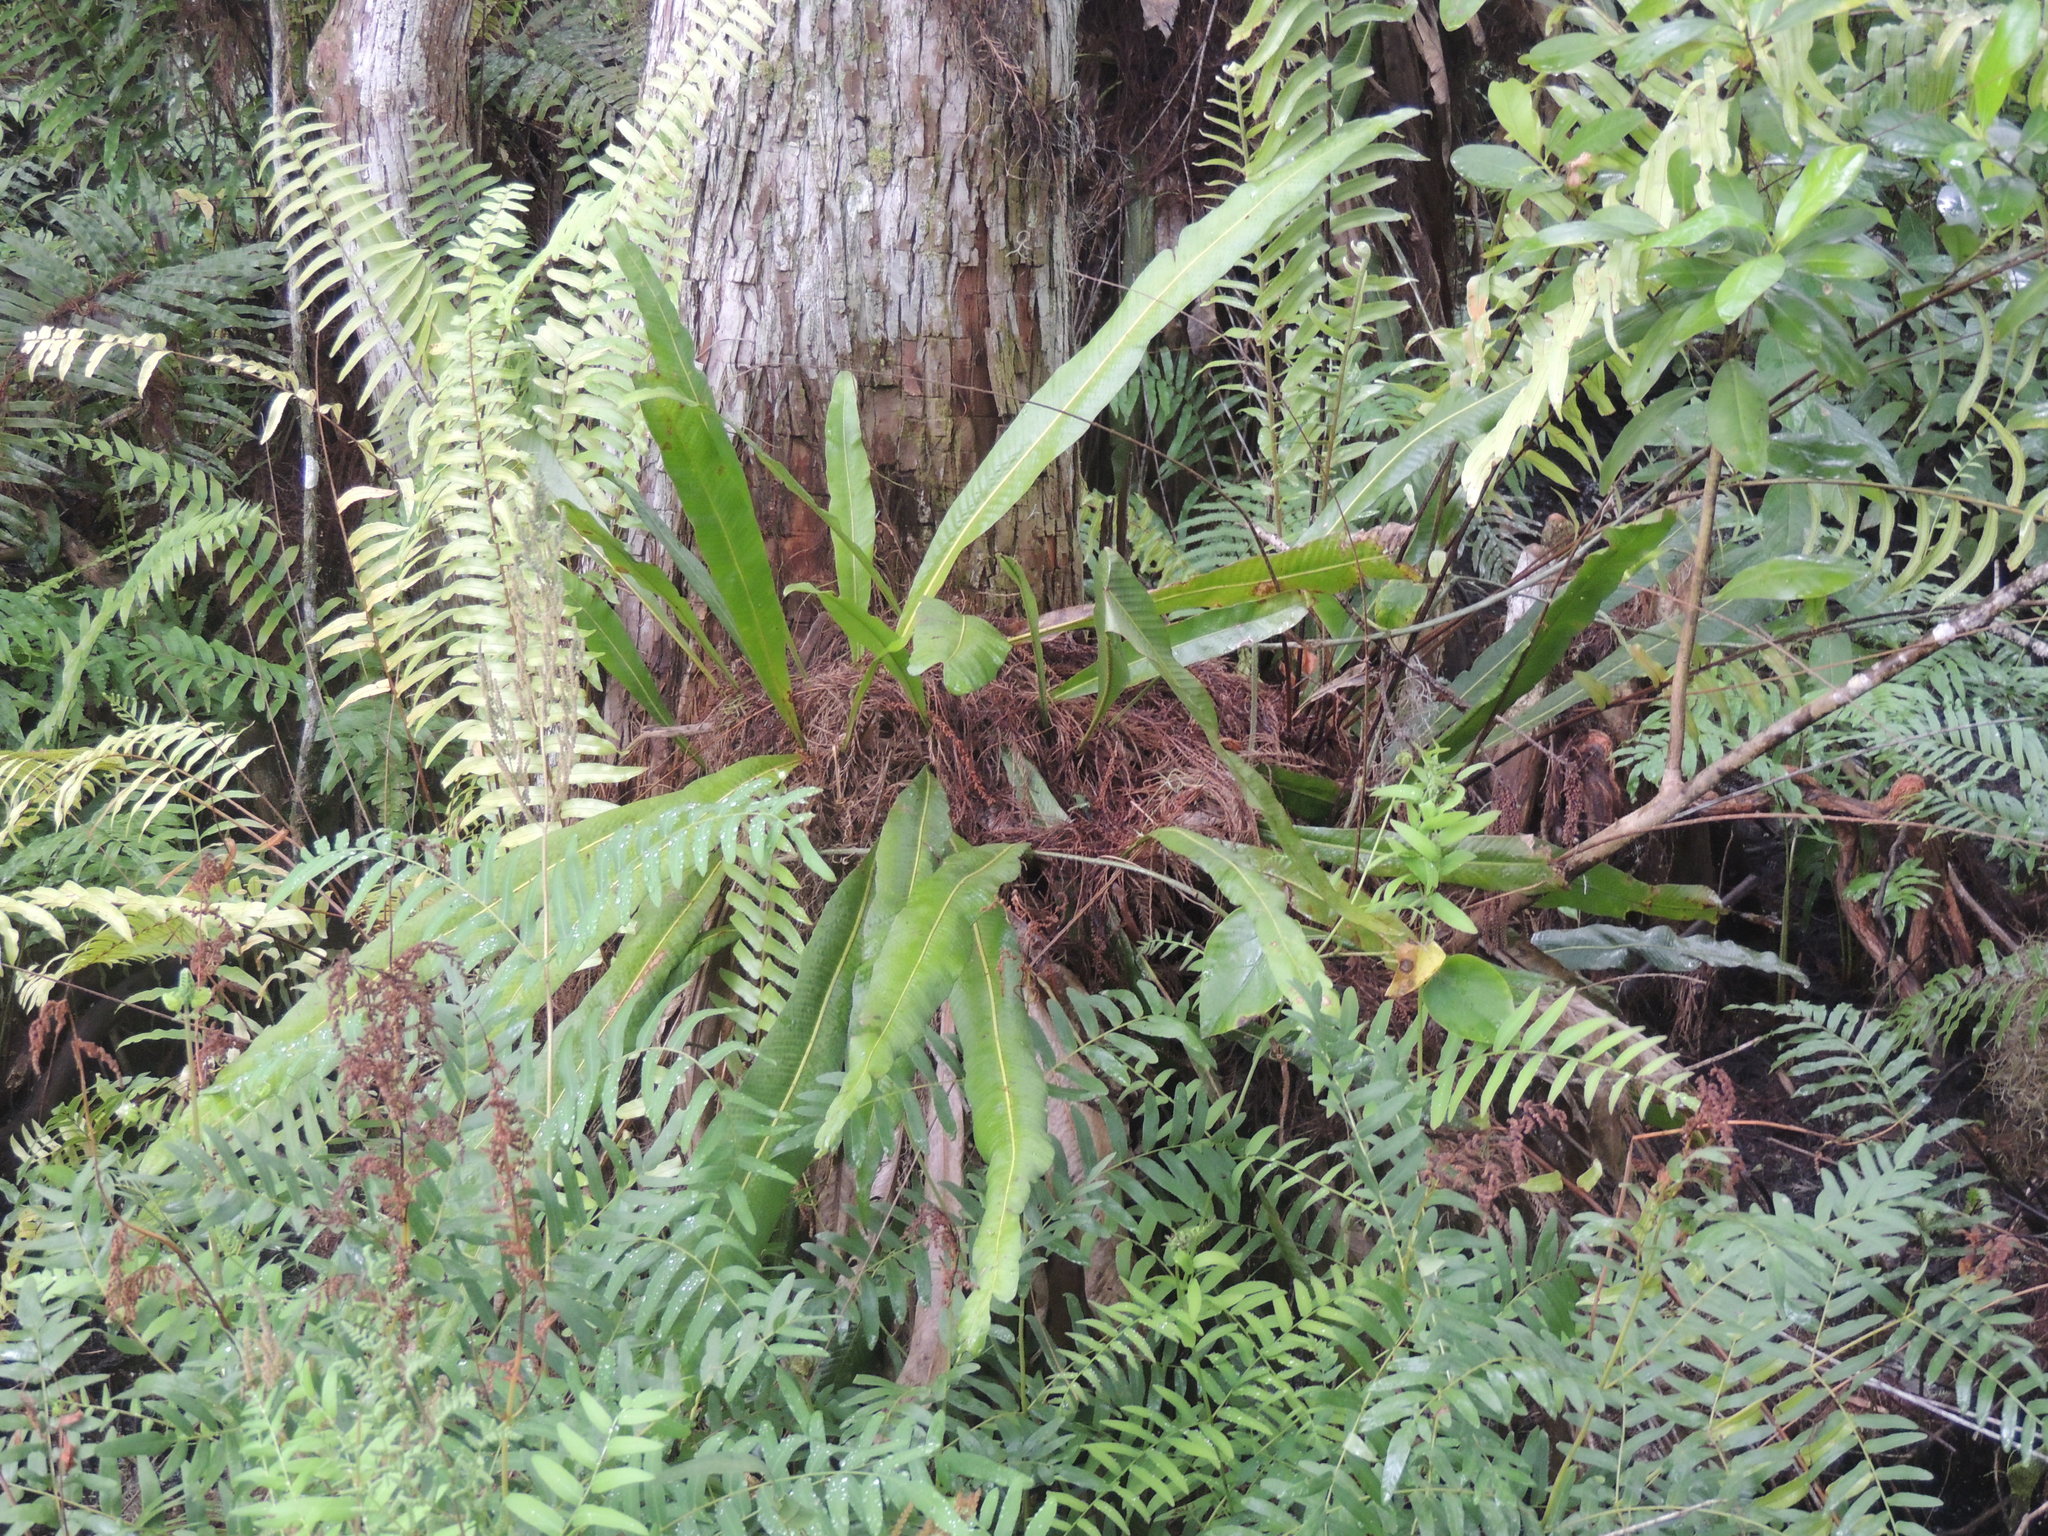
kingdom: Plantae
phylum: Tracheophyta
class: Polypodiopsida
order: Polypodiales
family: Polypodiaceae
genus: Campyloneurum
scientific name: Campyloneurum phyllitidis
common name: Cow-tongue fern
